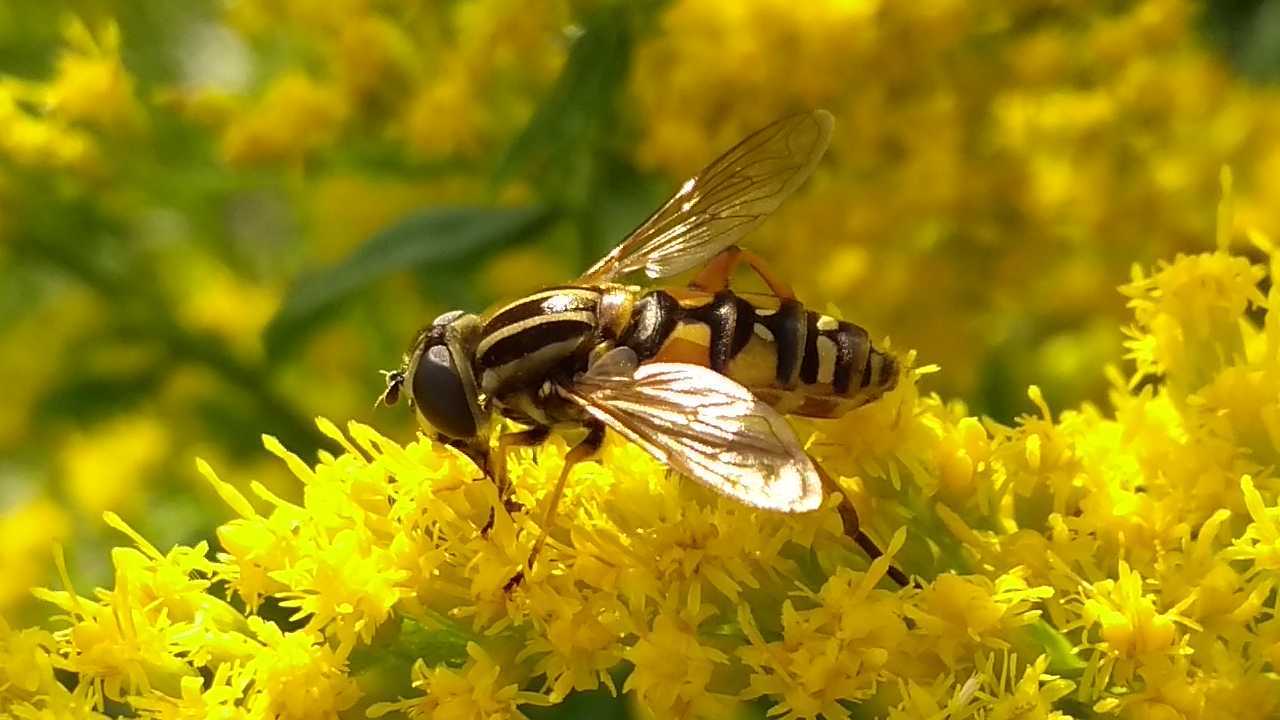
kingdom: Animalia
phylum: Arthropoda
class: Insecta
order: Diptera
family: Syrphidae
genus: Helophilus
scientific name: Helophilus pendulus
